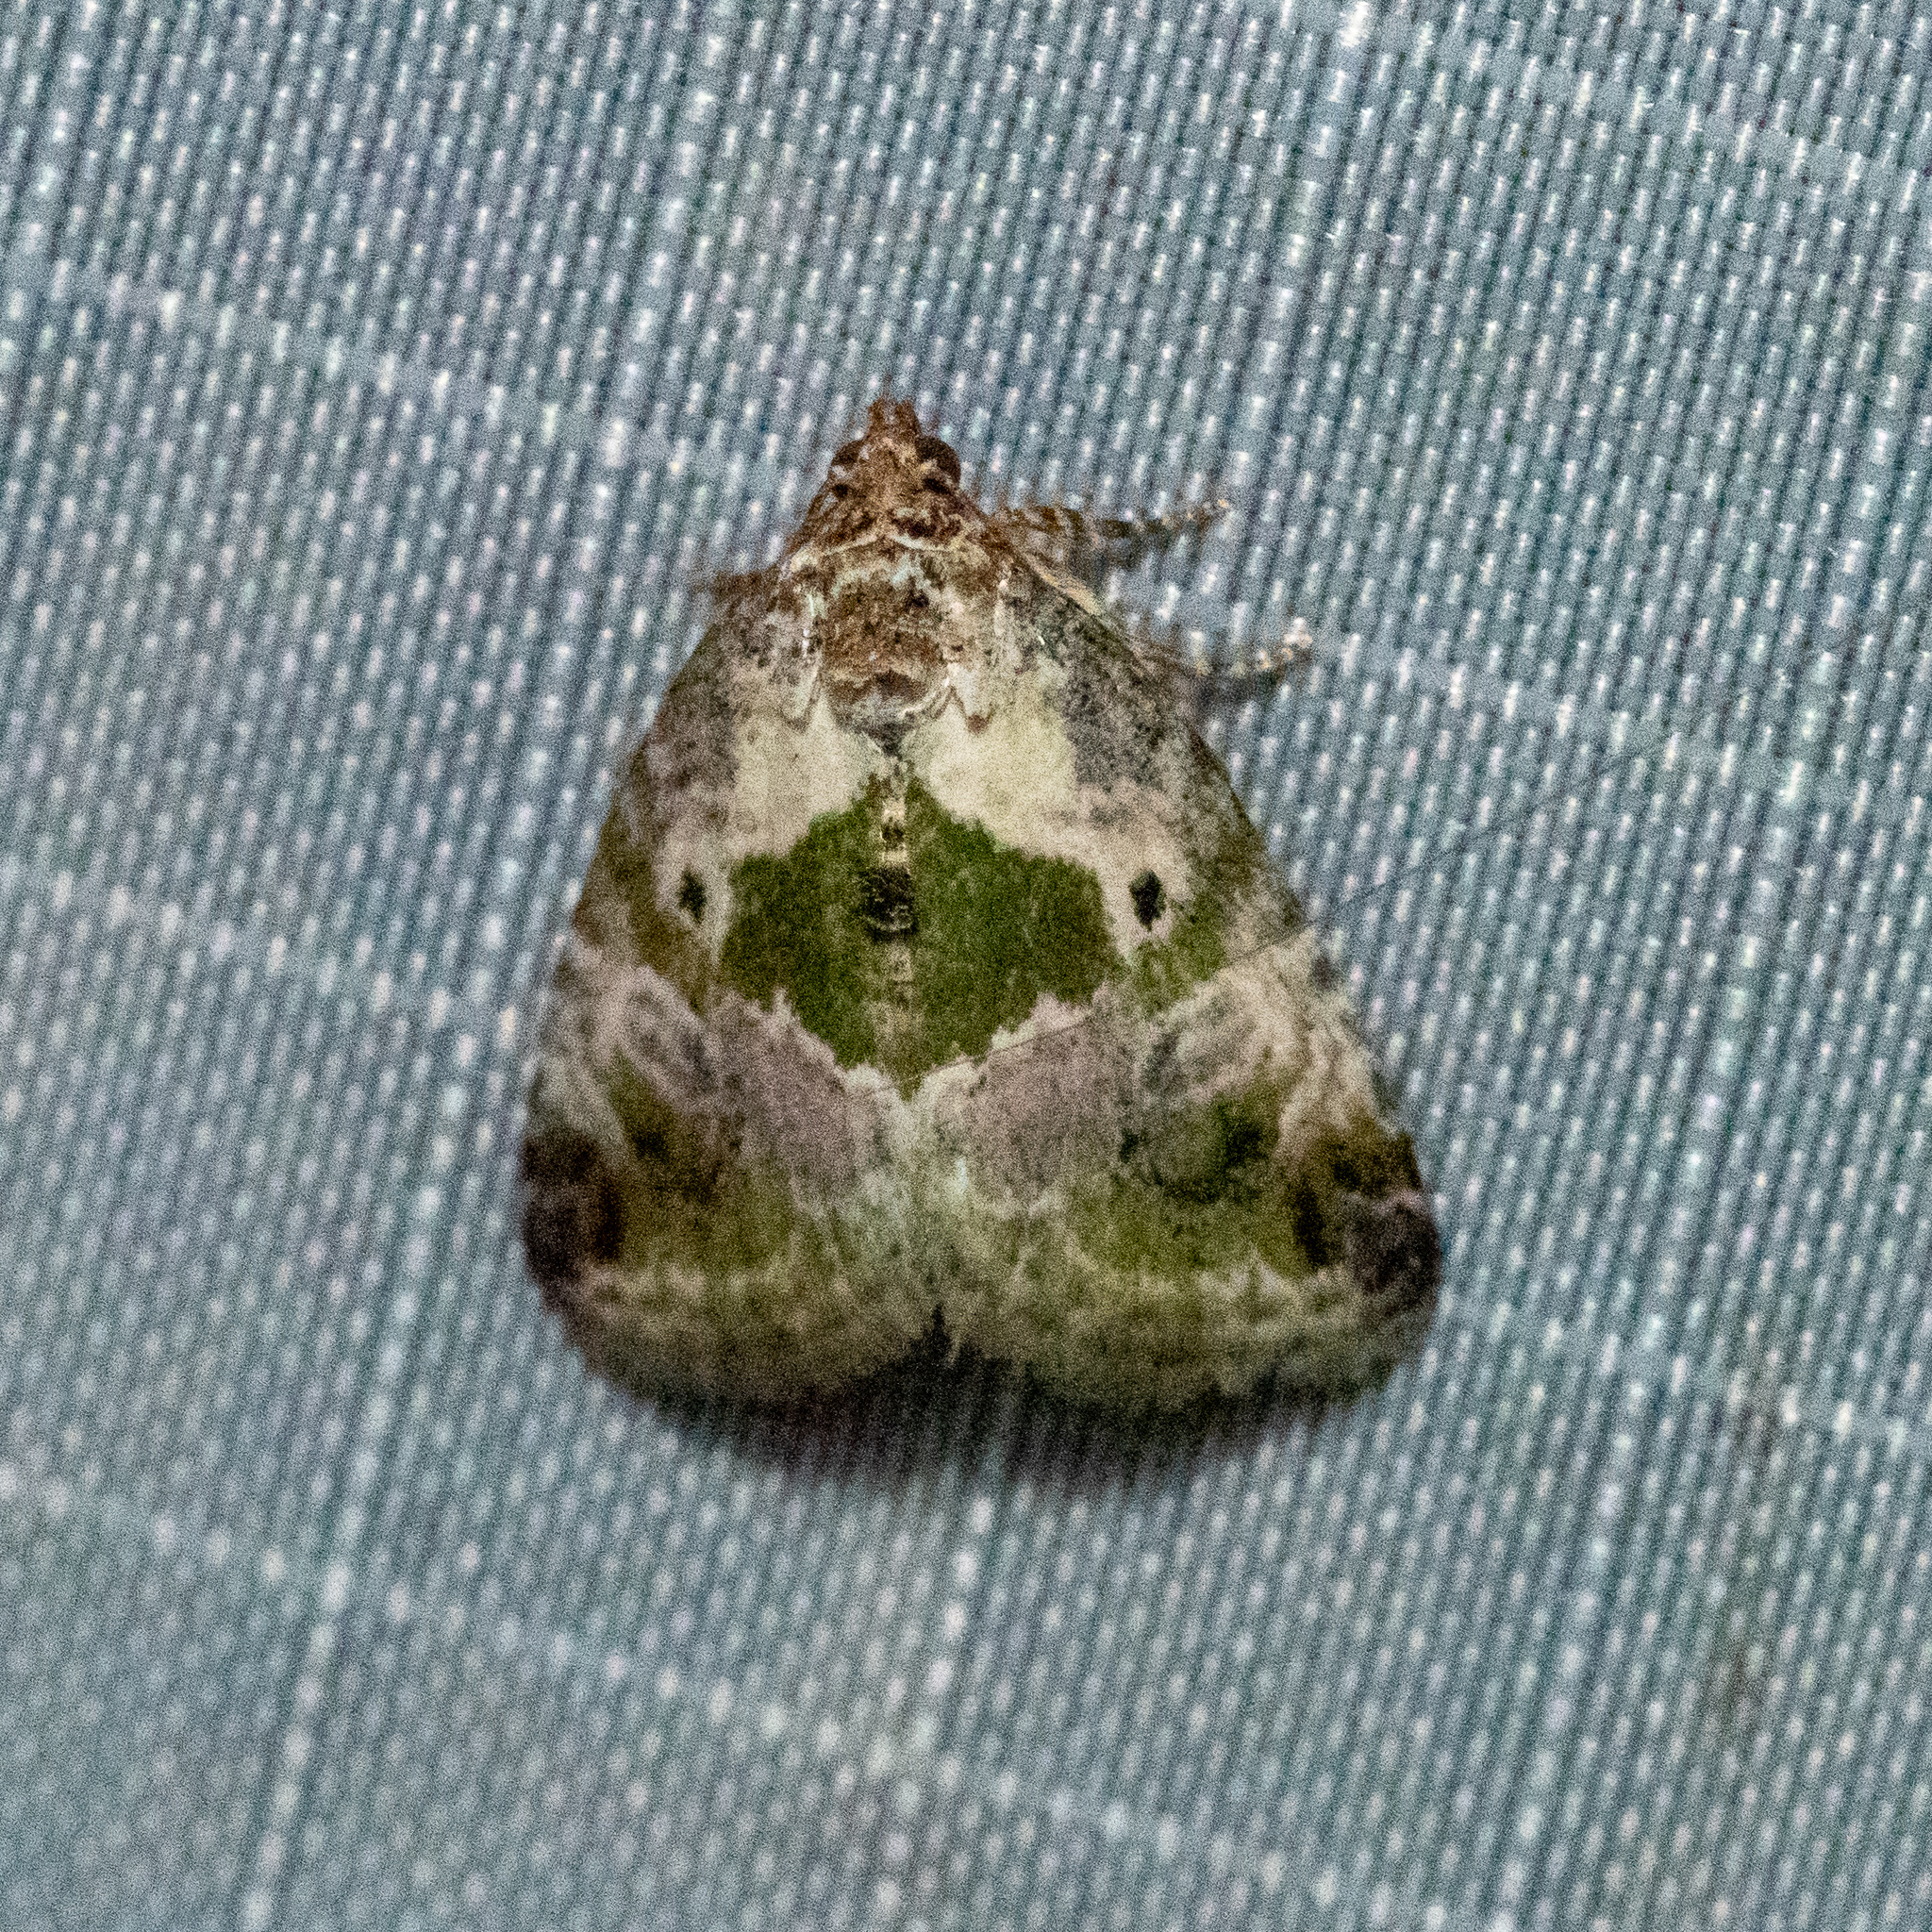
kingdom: Animalia
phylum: Arthropoda
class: Insecta
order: Lepidoptera
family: Noctuidae
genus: Maliattha
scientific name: Maliattha synochitis
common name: Black-dotted glyph
